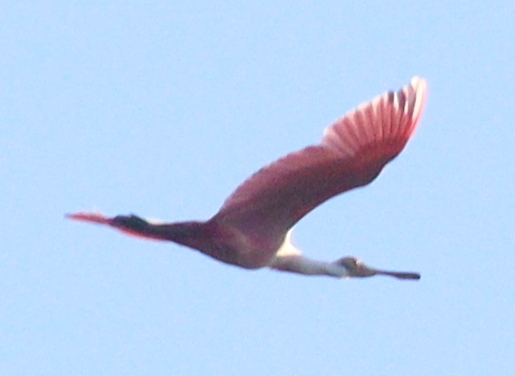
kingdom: Animalia
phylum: Chordata
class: Aves
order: Pelecaniformes
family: Threskiornithidae
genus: Platalea
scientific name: Platalea ajaja
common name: Roseate spoonbill
